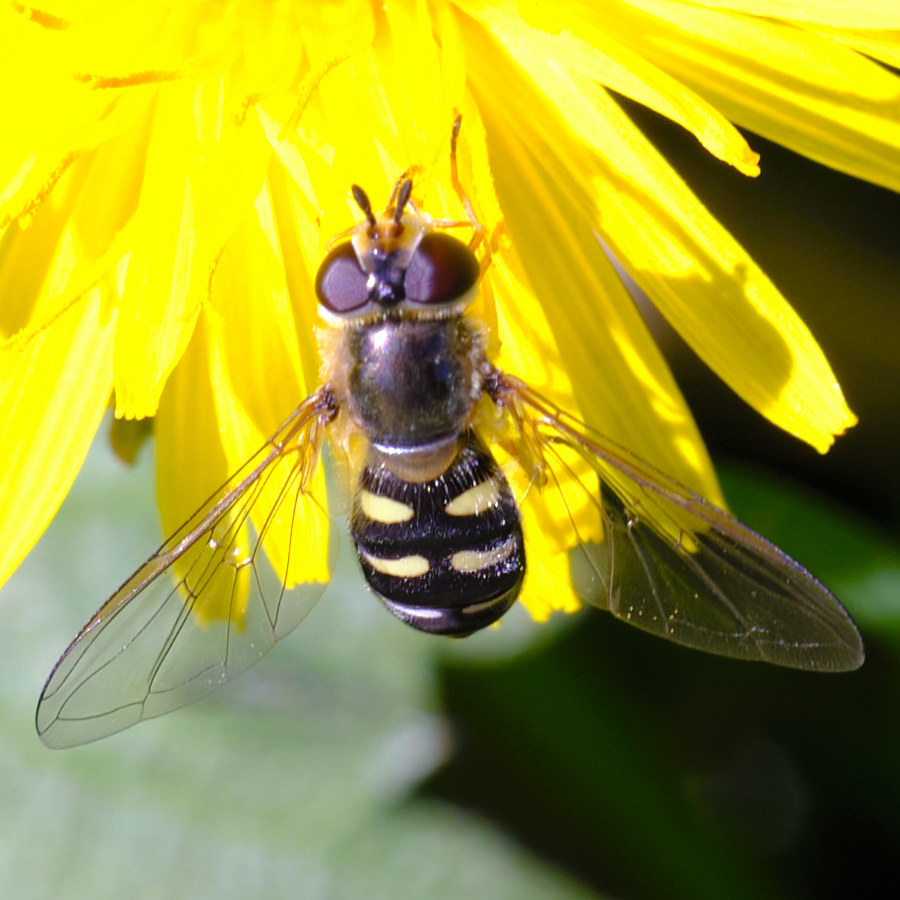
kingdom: Animalia
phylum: Arthropoda
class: Insecta
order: Diptera
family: Syrphidae
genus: Eupeodes
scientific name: Eupeodes luniger
